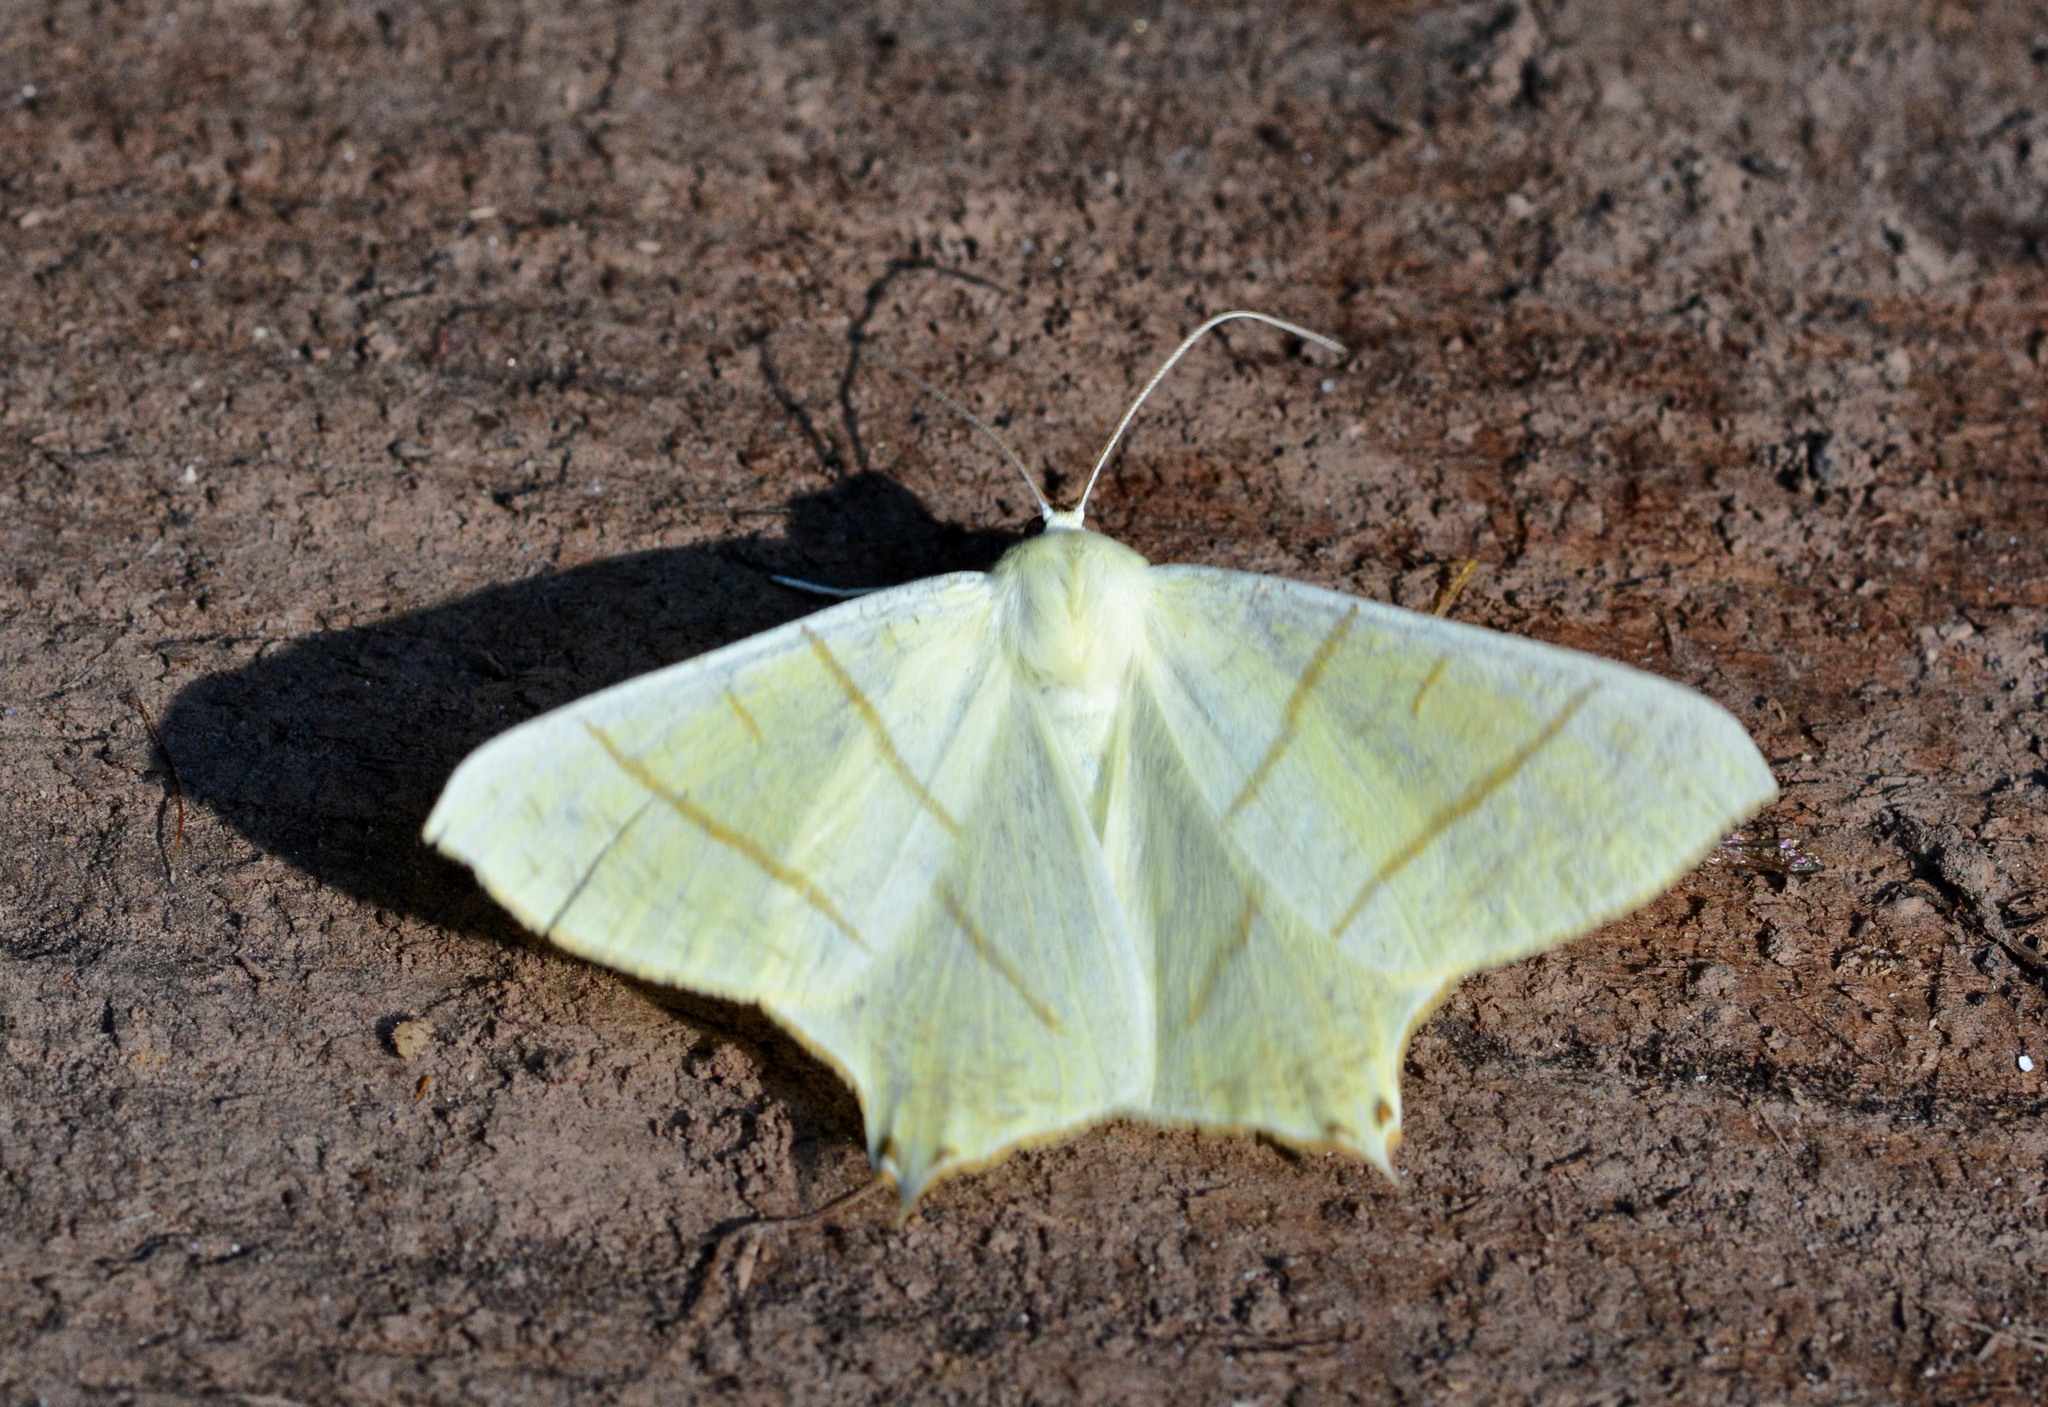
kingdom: Animalia
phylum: Arthropoda
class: Insecta
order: Lepidoptera
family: Geometridae
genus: Ourapteryx
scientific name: Ourapteryx sambucaria
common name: Swallow-tailed moth
